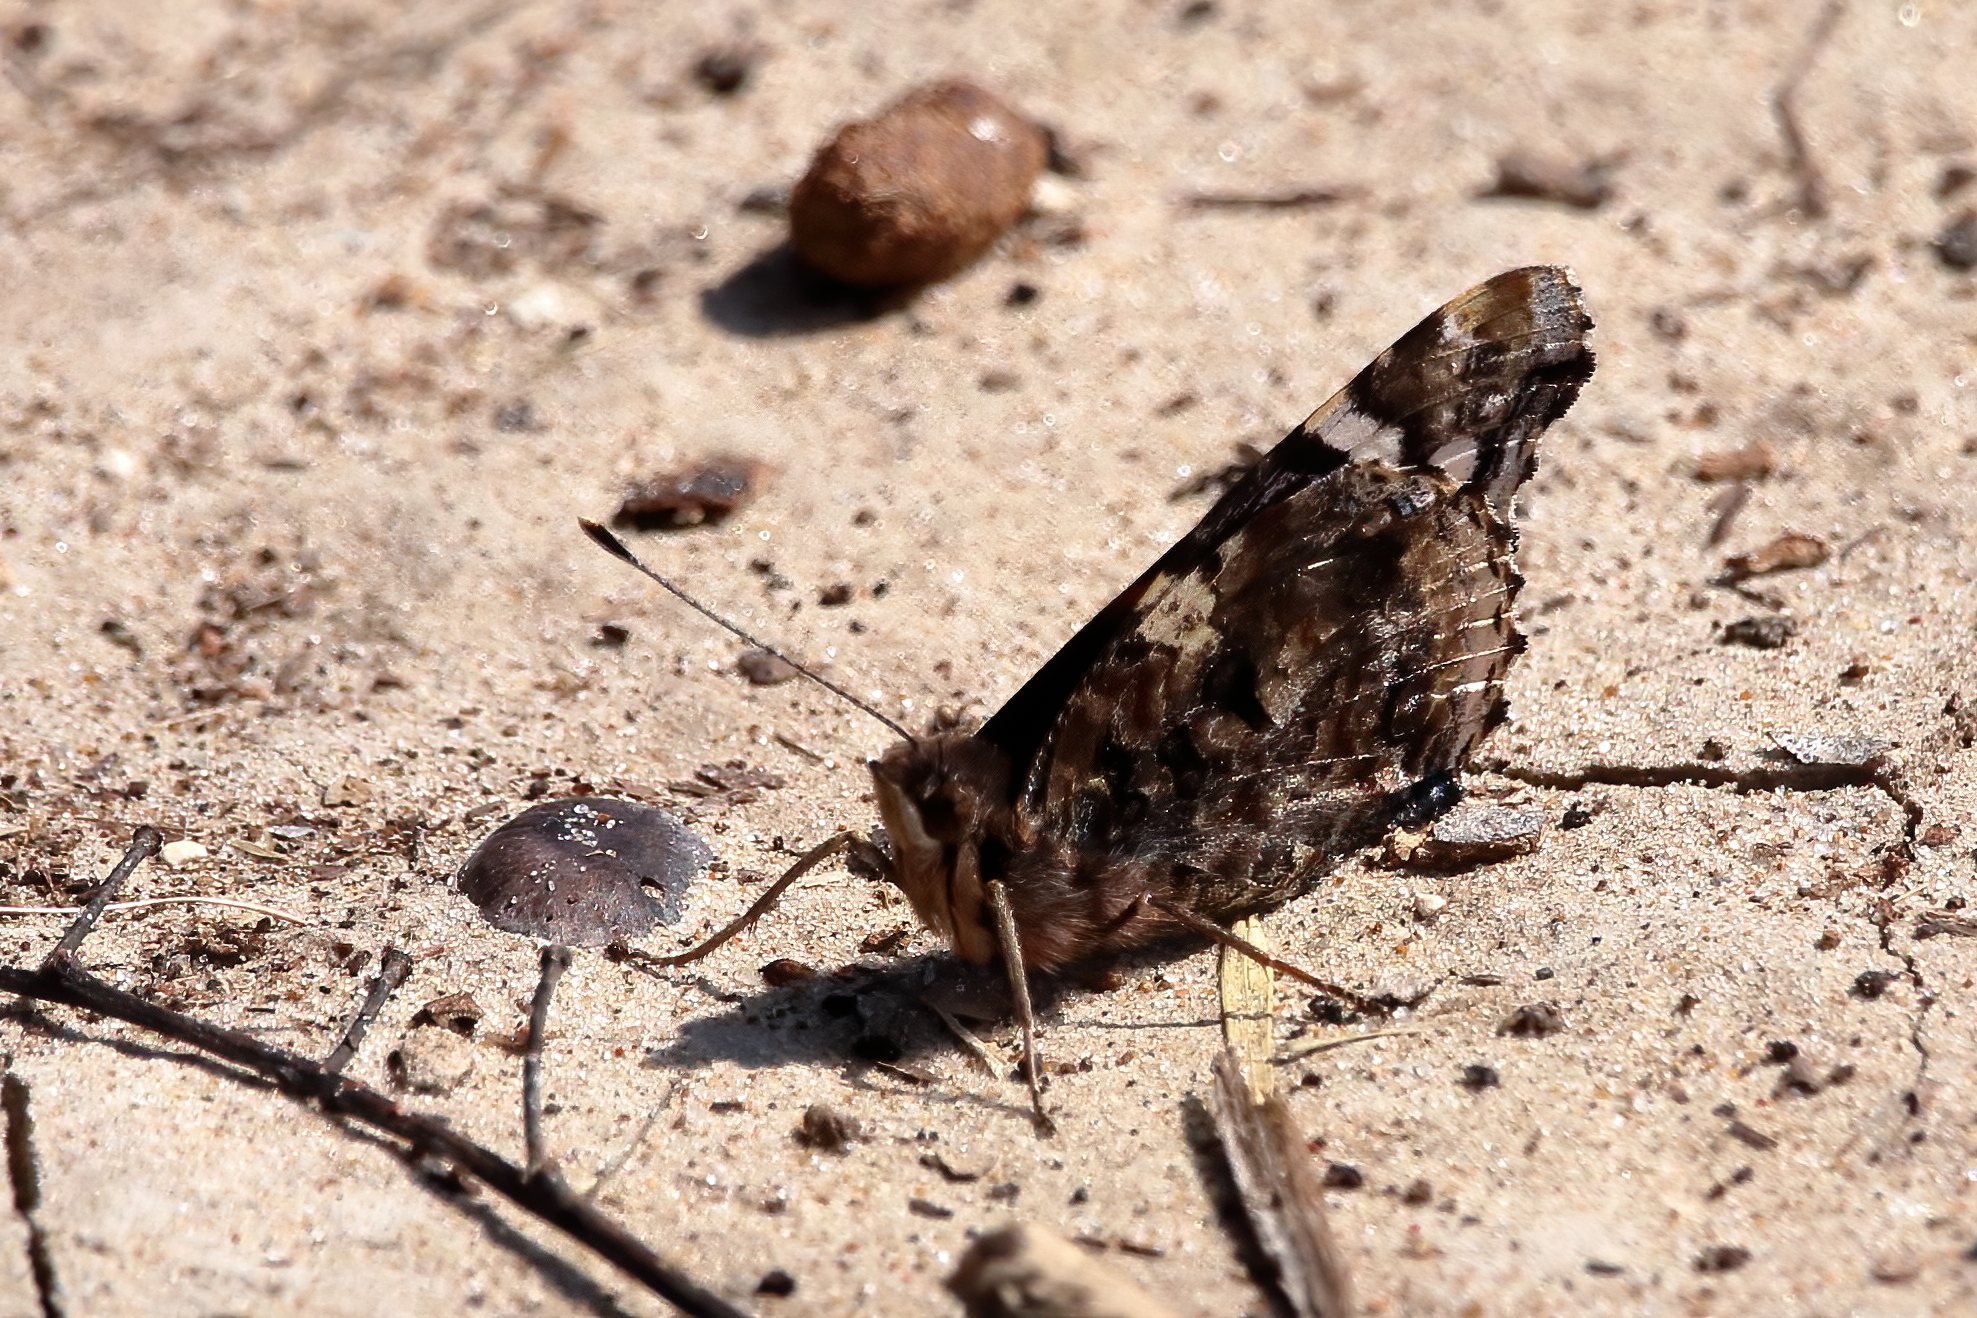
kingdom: Animalia
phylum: Arthropoda
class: Insecta
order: Lepidoptera
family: Nymphalidae
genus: Vanessa
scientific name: Vanessa atalanta
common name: Red admiral
